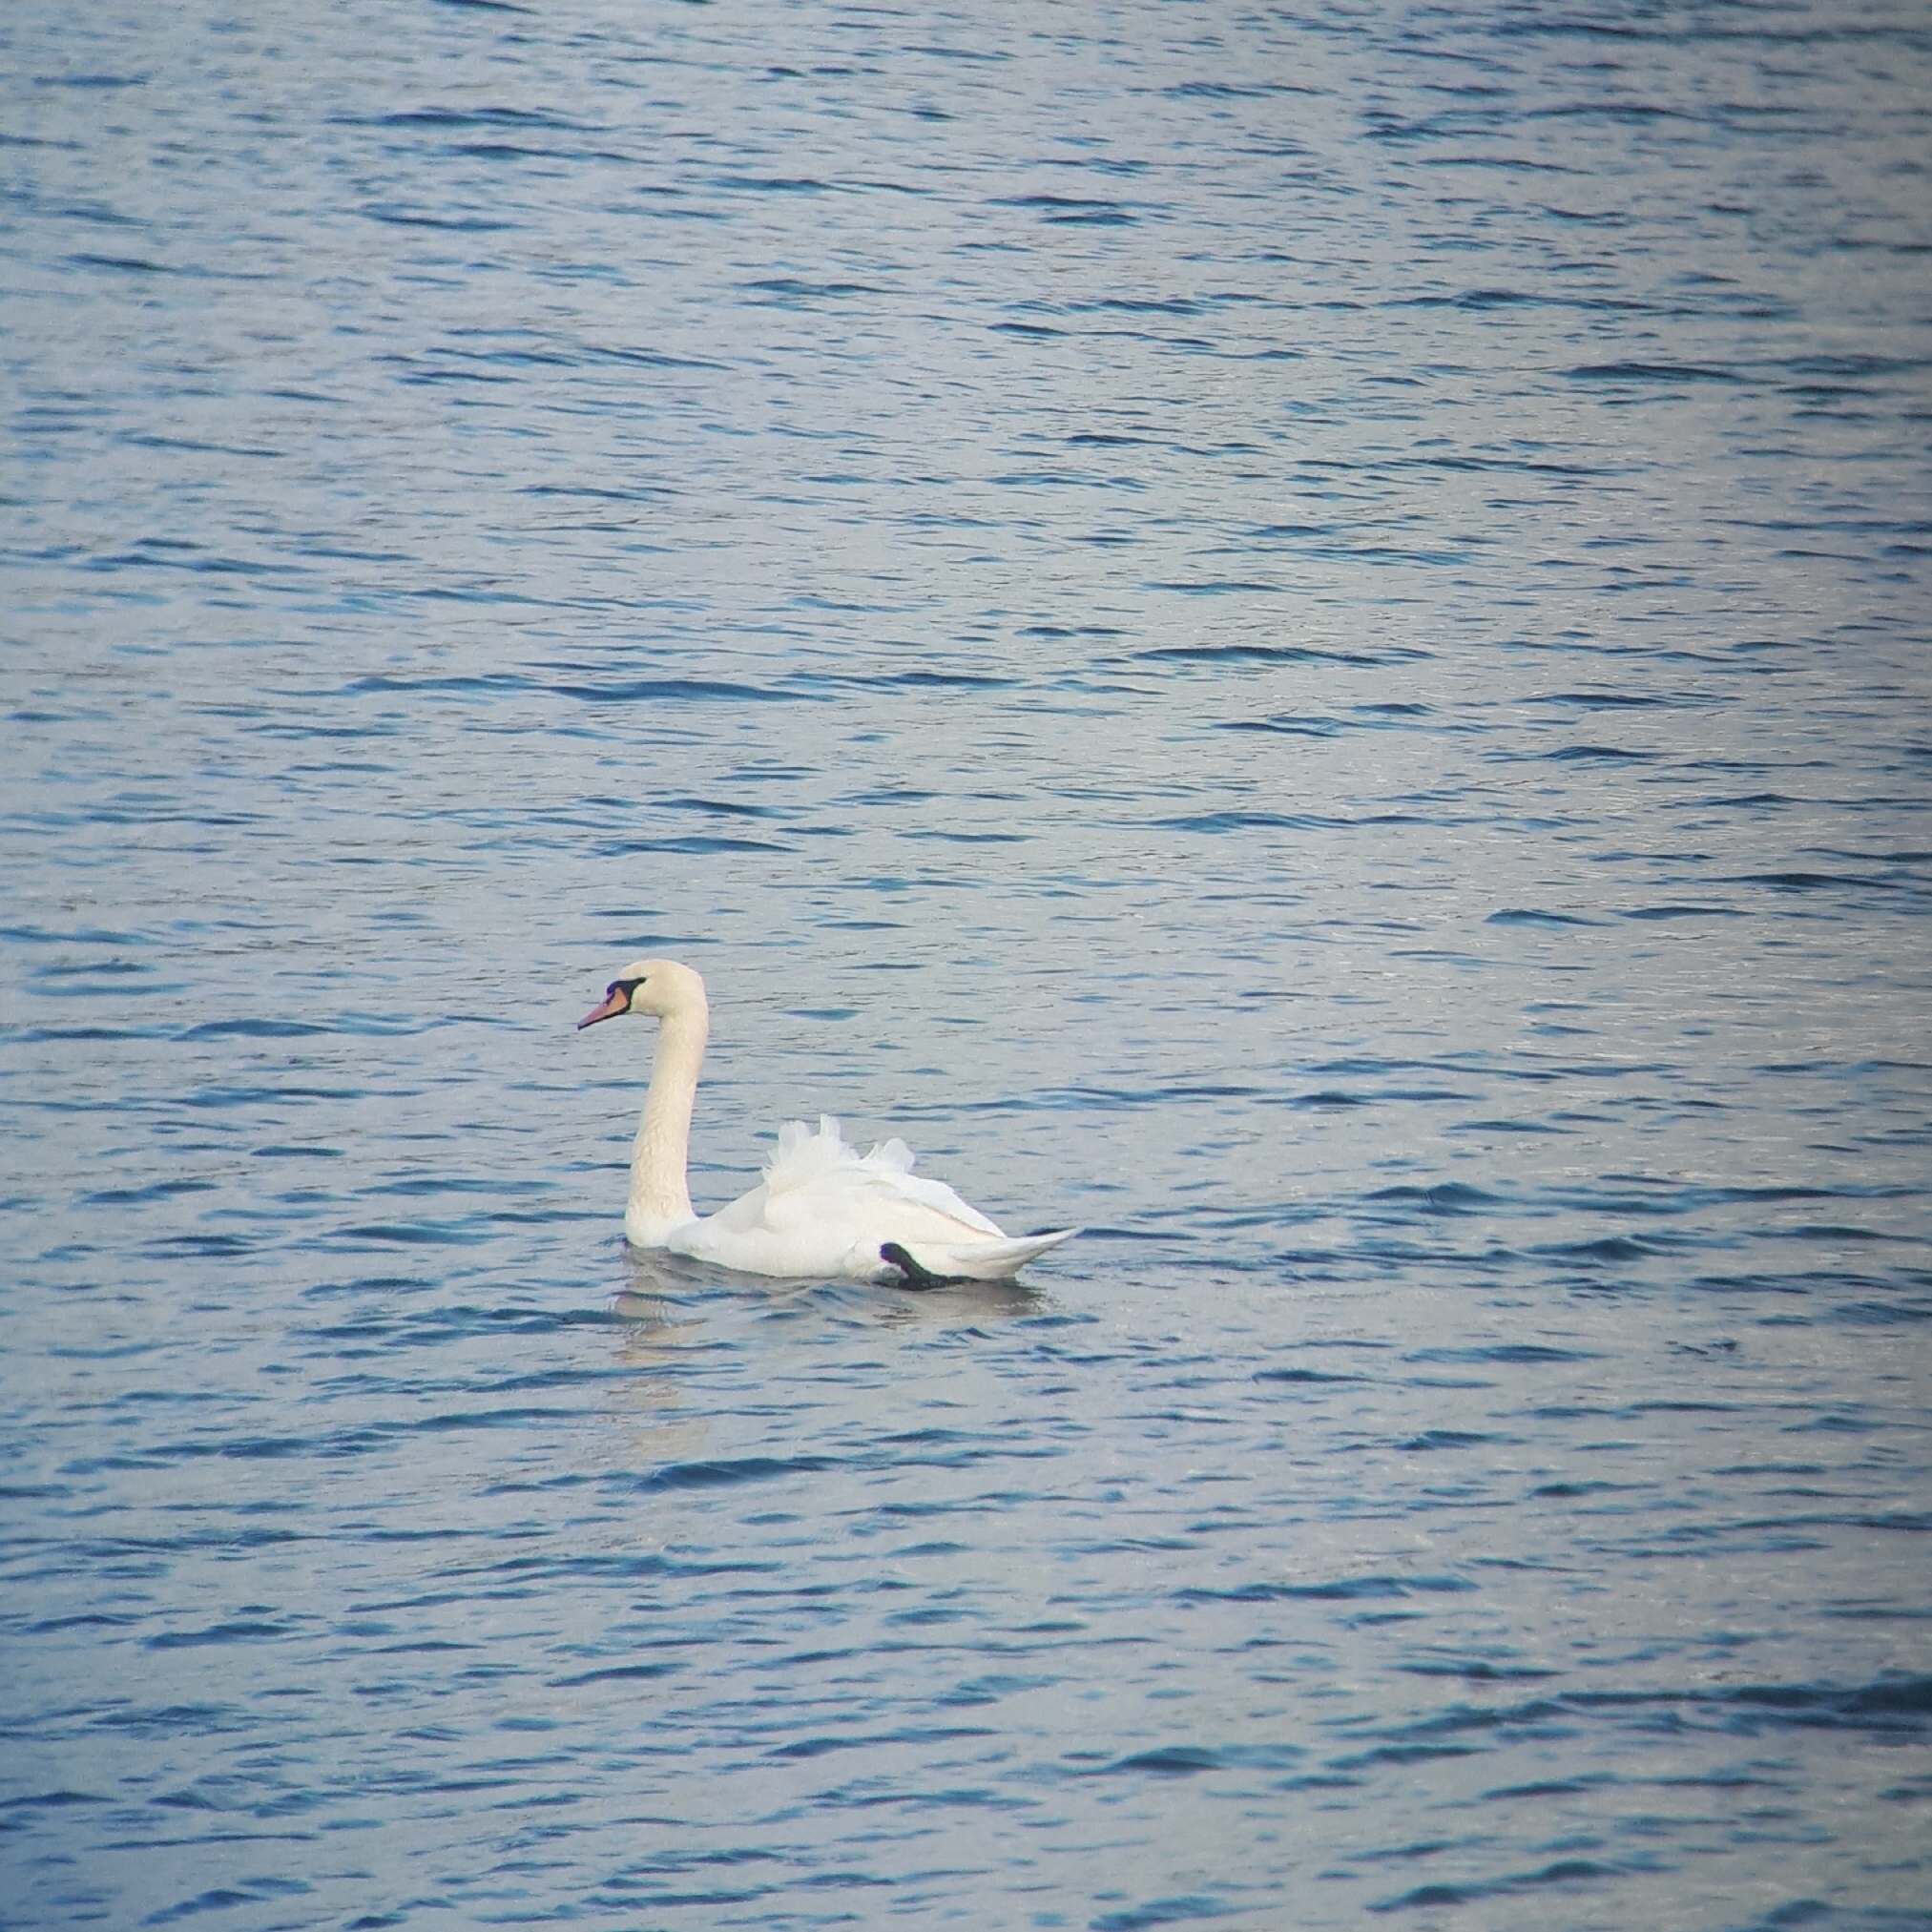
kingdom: Animalia
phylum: Chordata
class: Aves
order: Anseriformes
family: Anatidae
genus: Cygnus
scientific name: Cygnus olor
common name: Mute swan
